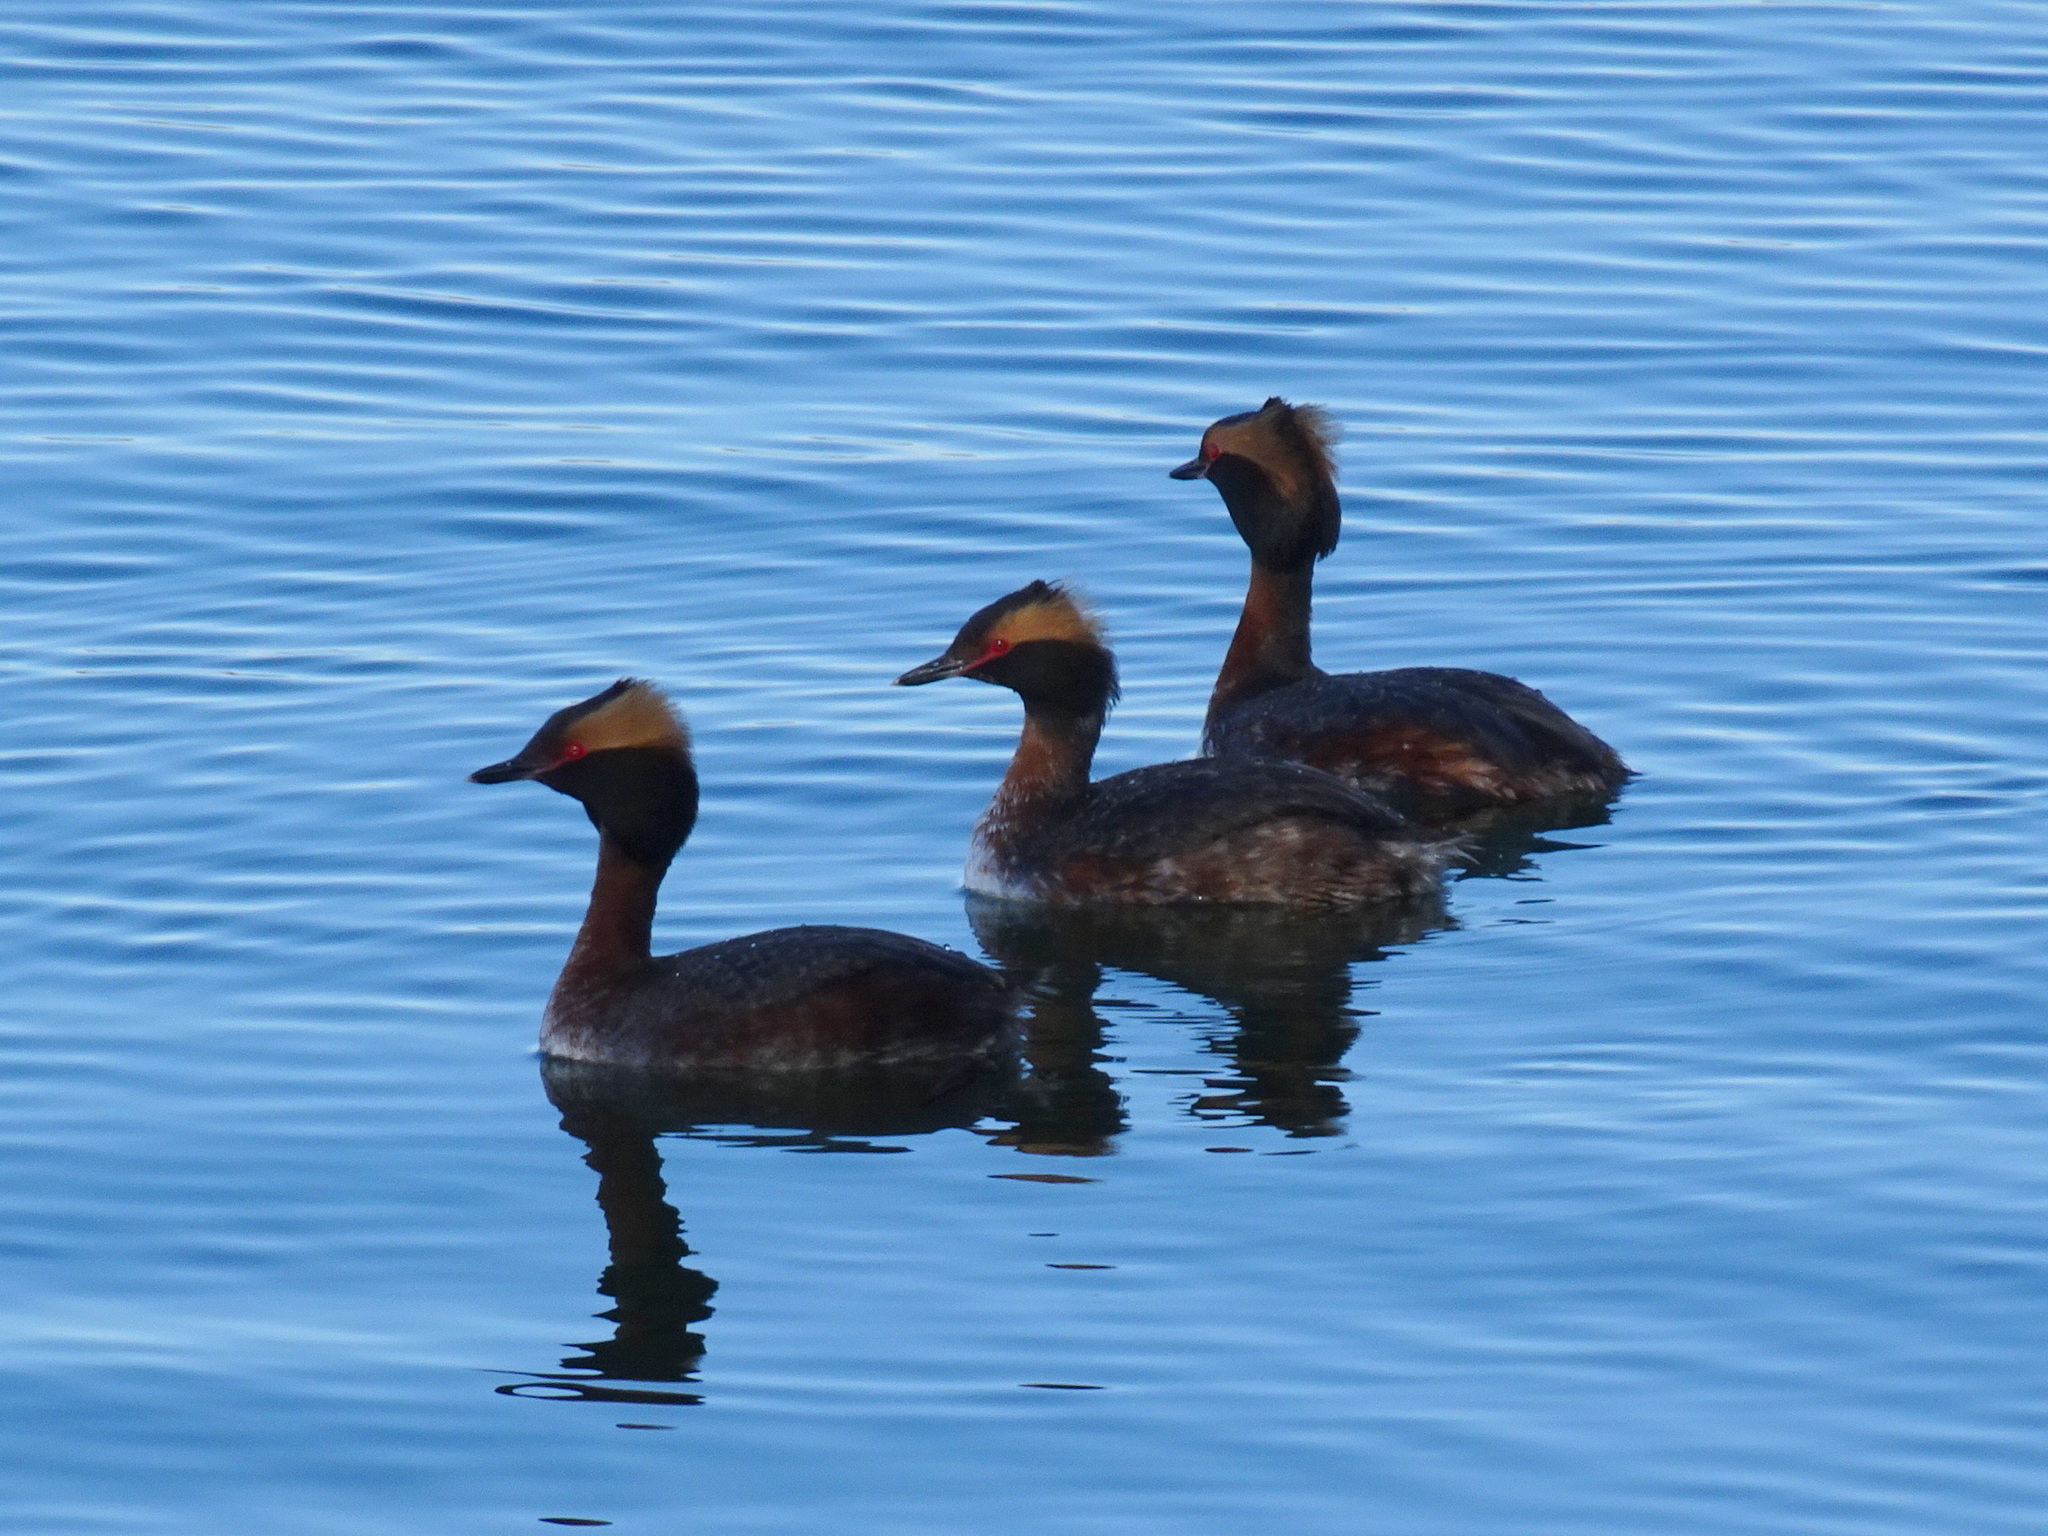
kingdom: Animalia
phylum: Chordata
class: Aves
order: Podicipediformes
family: Podicipedidae
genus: Podiceps
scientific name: Podiceps auritus
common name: Horned grebe
